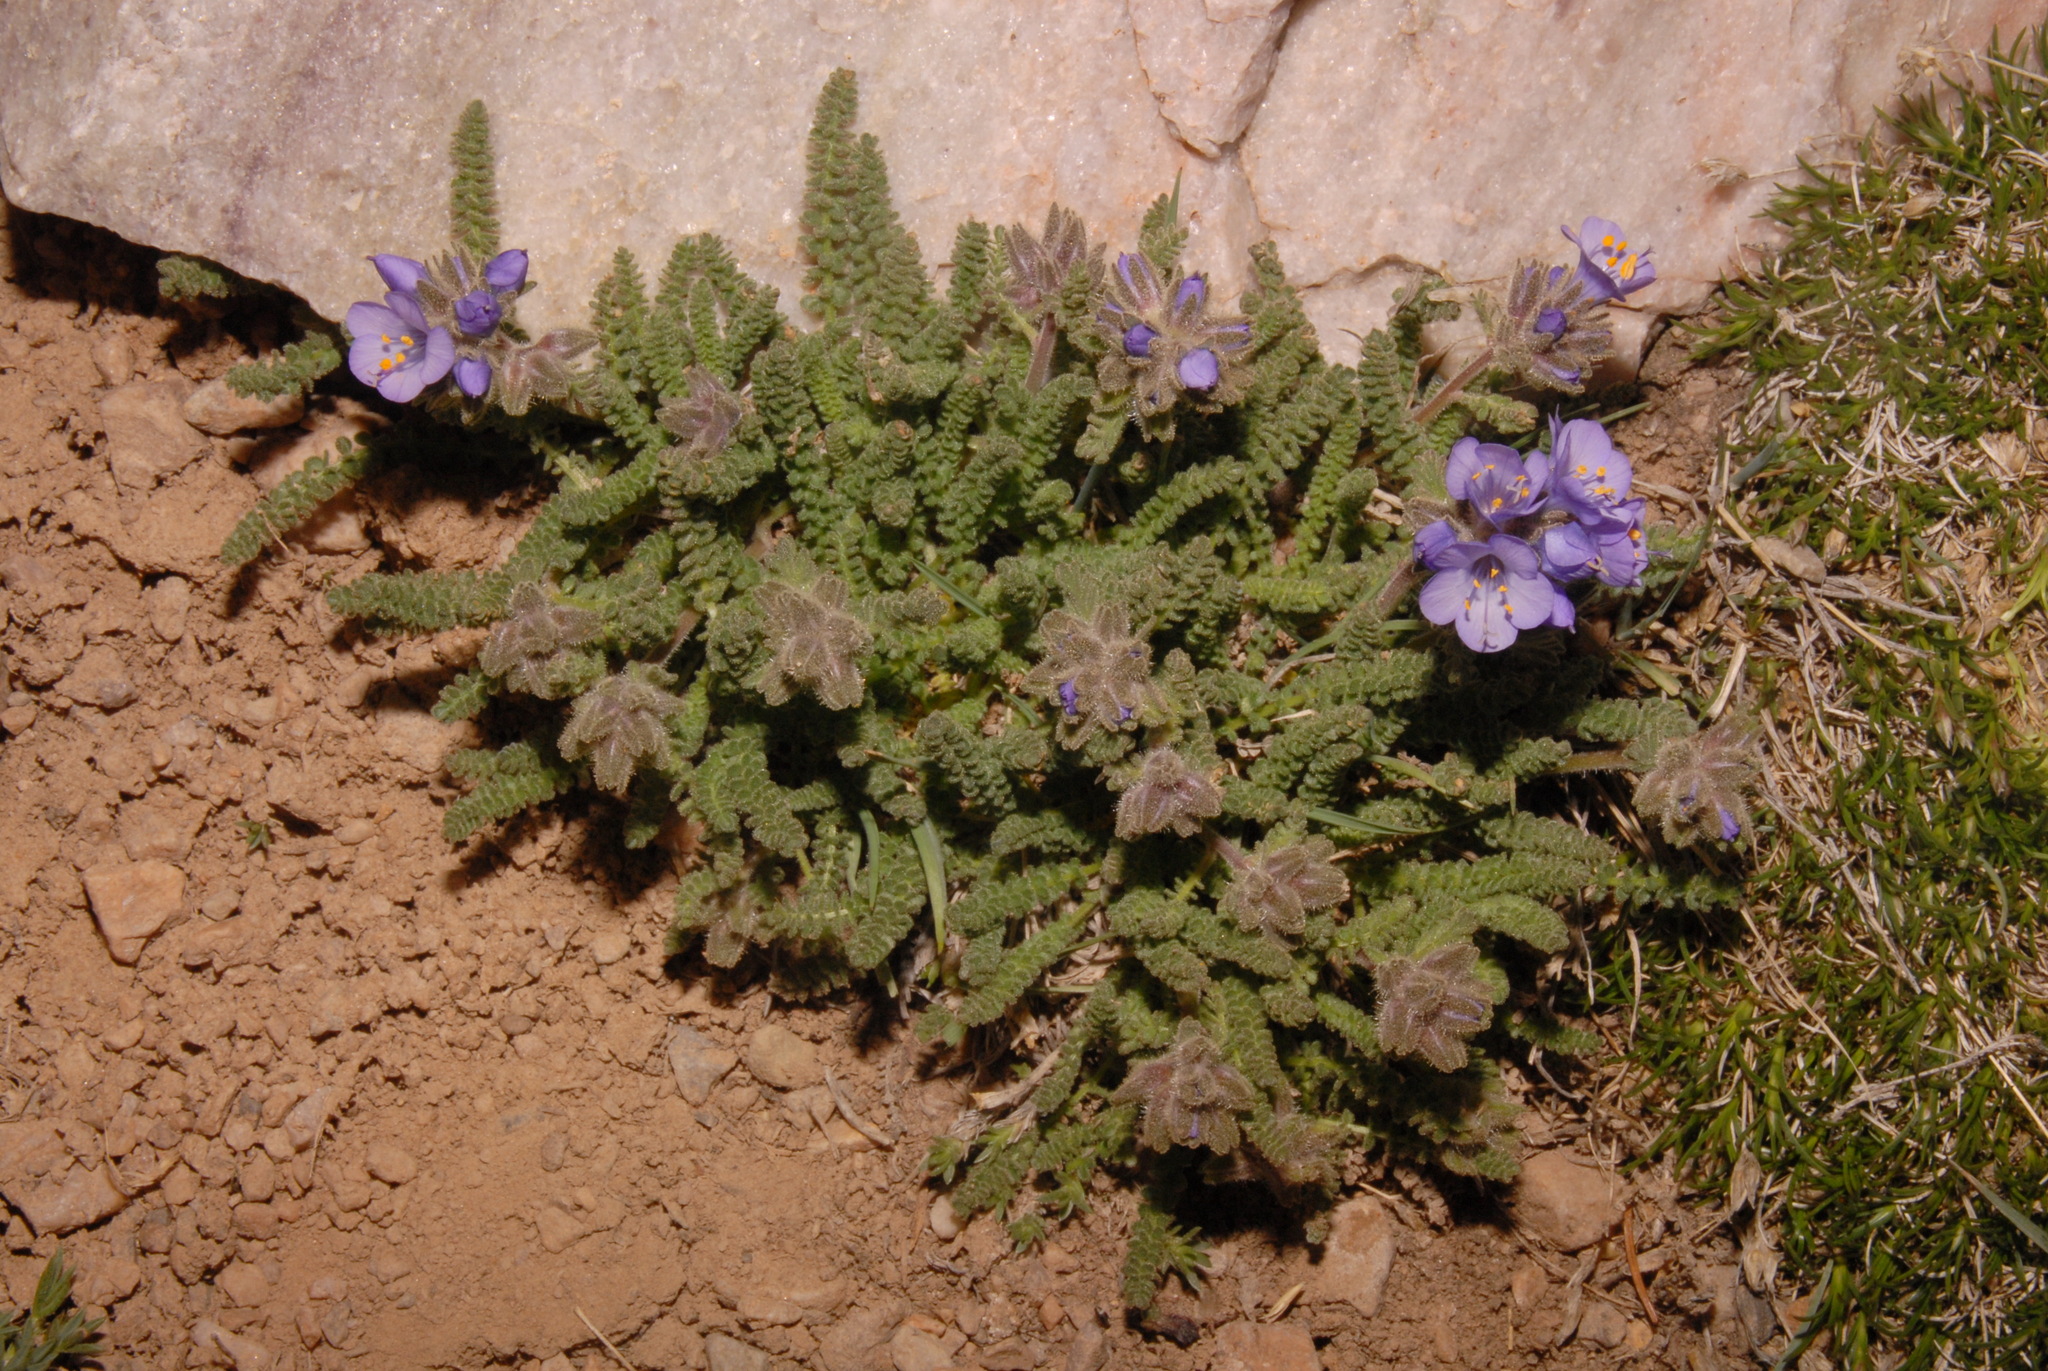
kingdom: Plantae
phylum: Tracheophyta
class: Magnoliopsida
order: Ericales
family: Polemoniaceae
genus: Polemonium
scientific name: Polemonium viscosum
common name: Skunk jacob's-ladder
